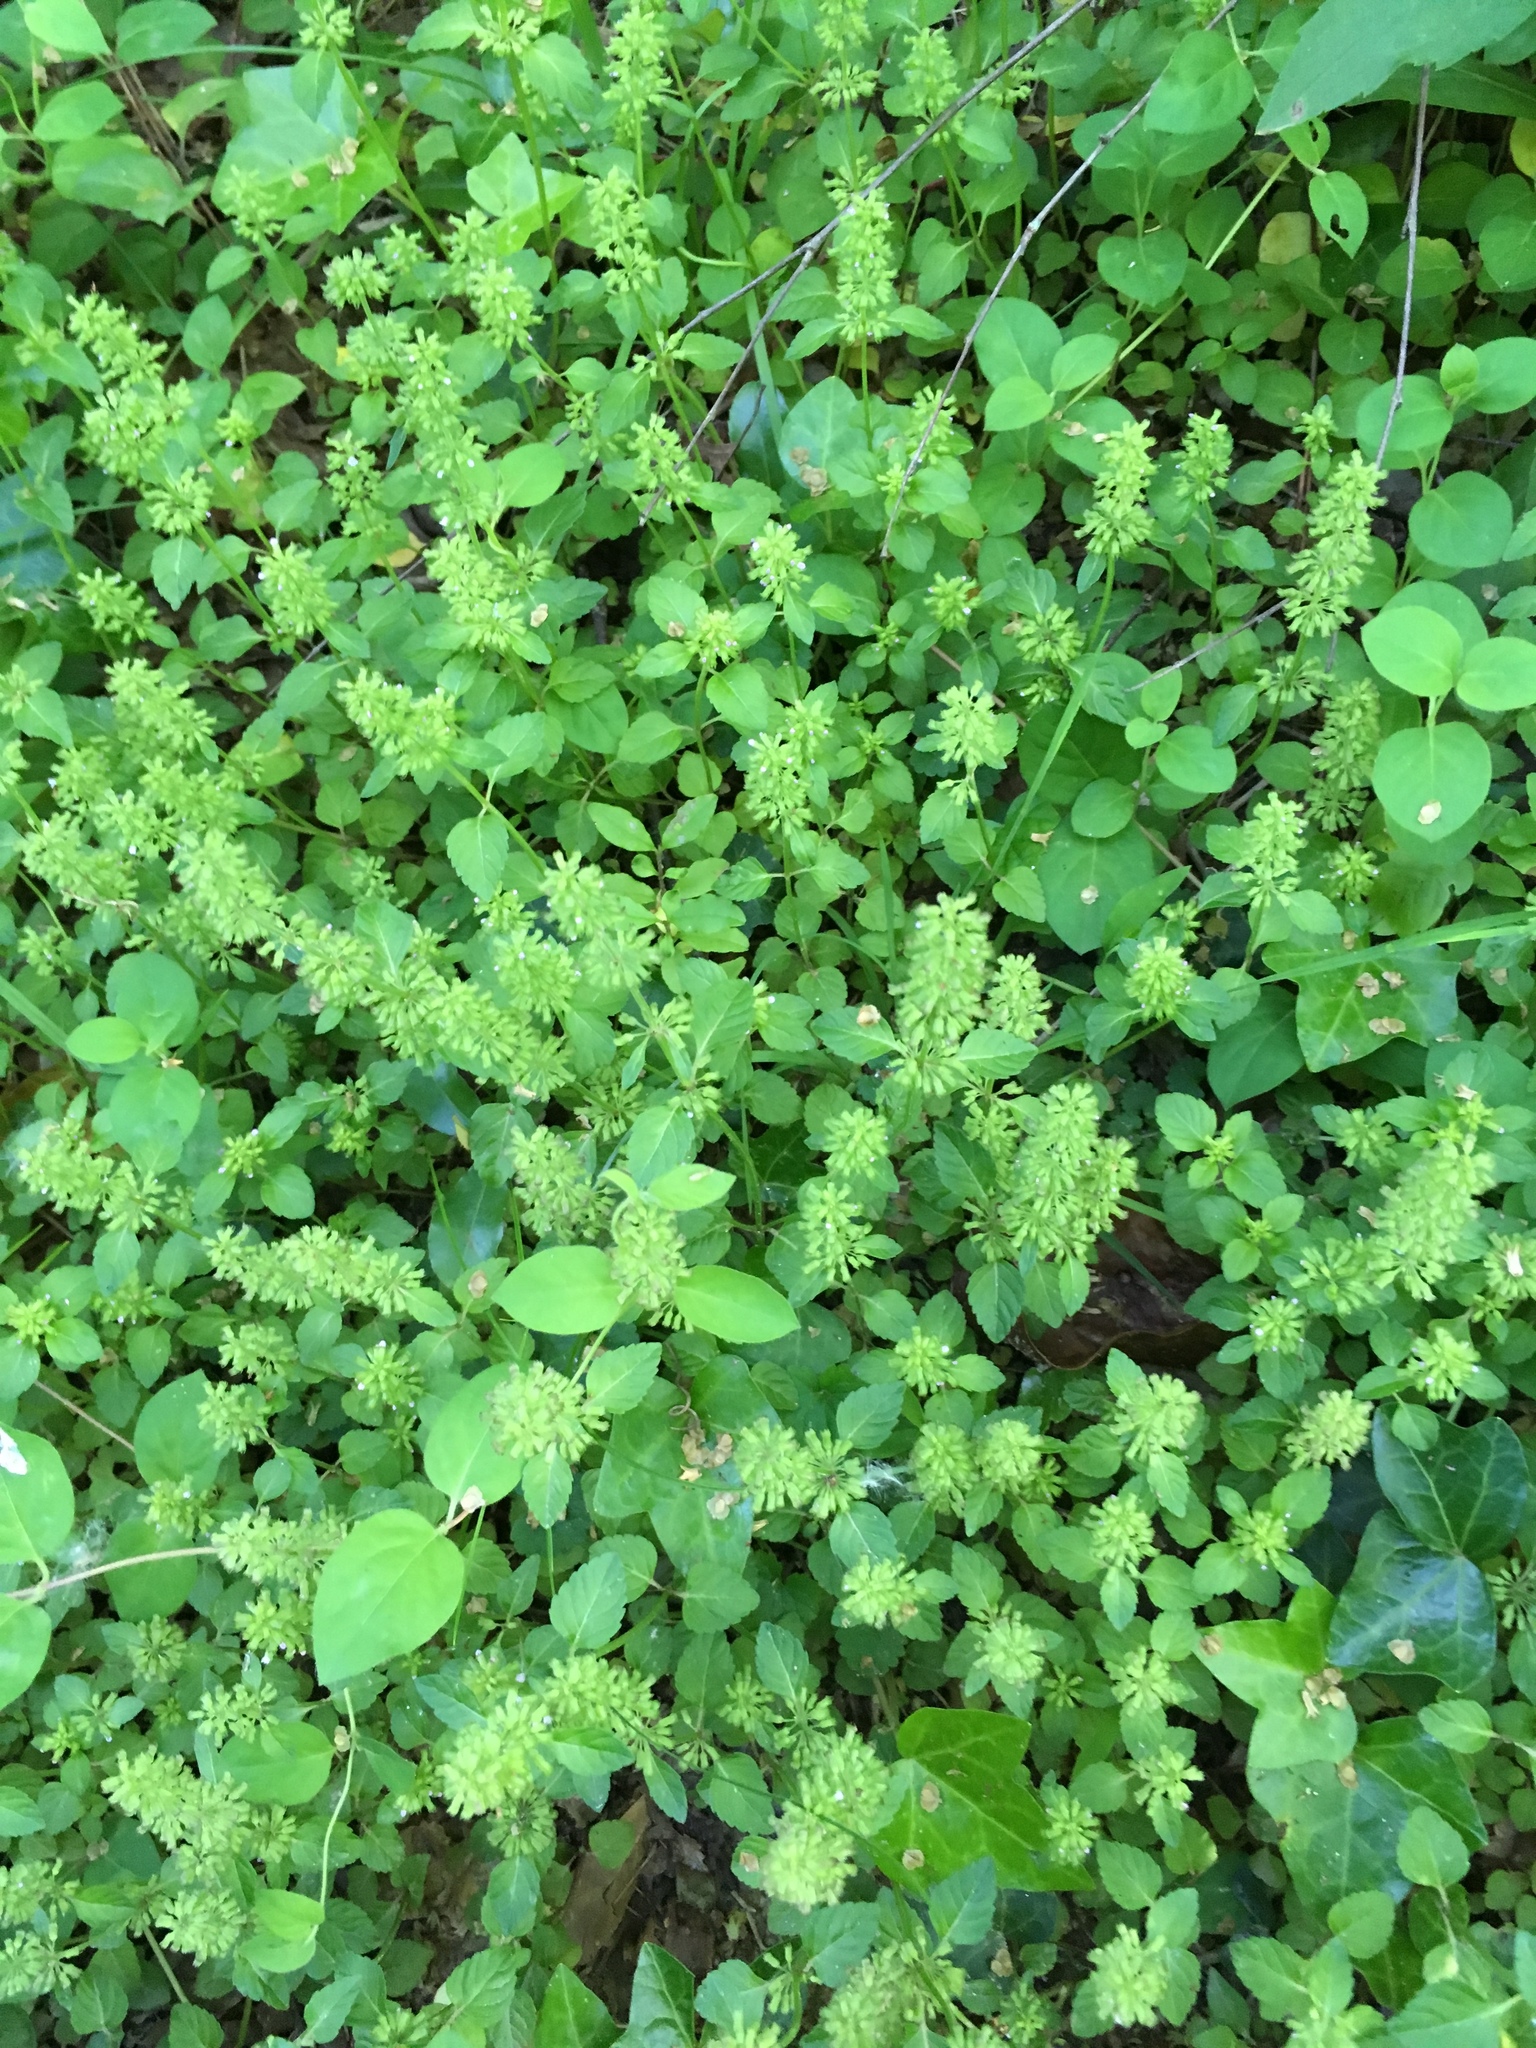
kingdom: Plantae
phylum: Tracheophyta
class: Magnoliopsida
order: Lamiales
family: Lamiaceae
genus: Clinopodium
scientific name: Clinopodium gracile
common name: Slender wild basil
